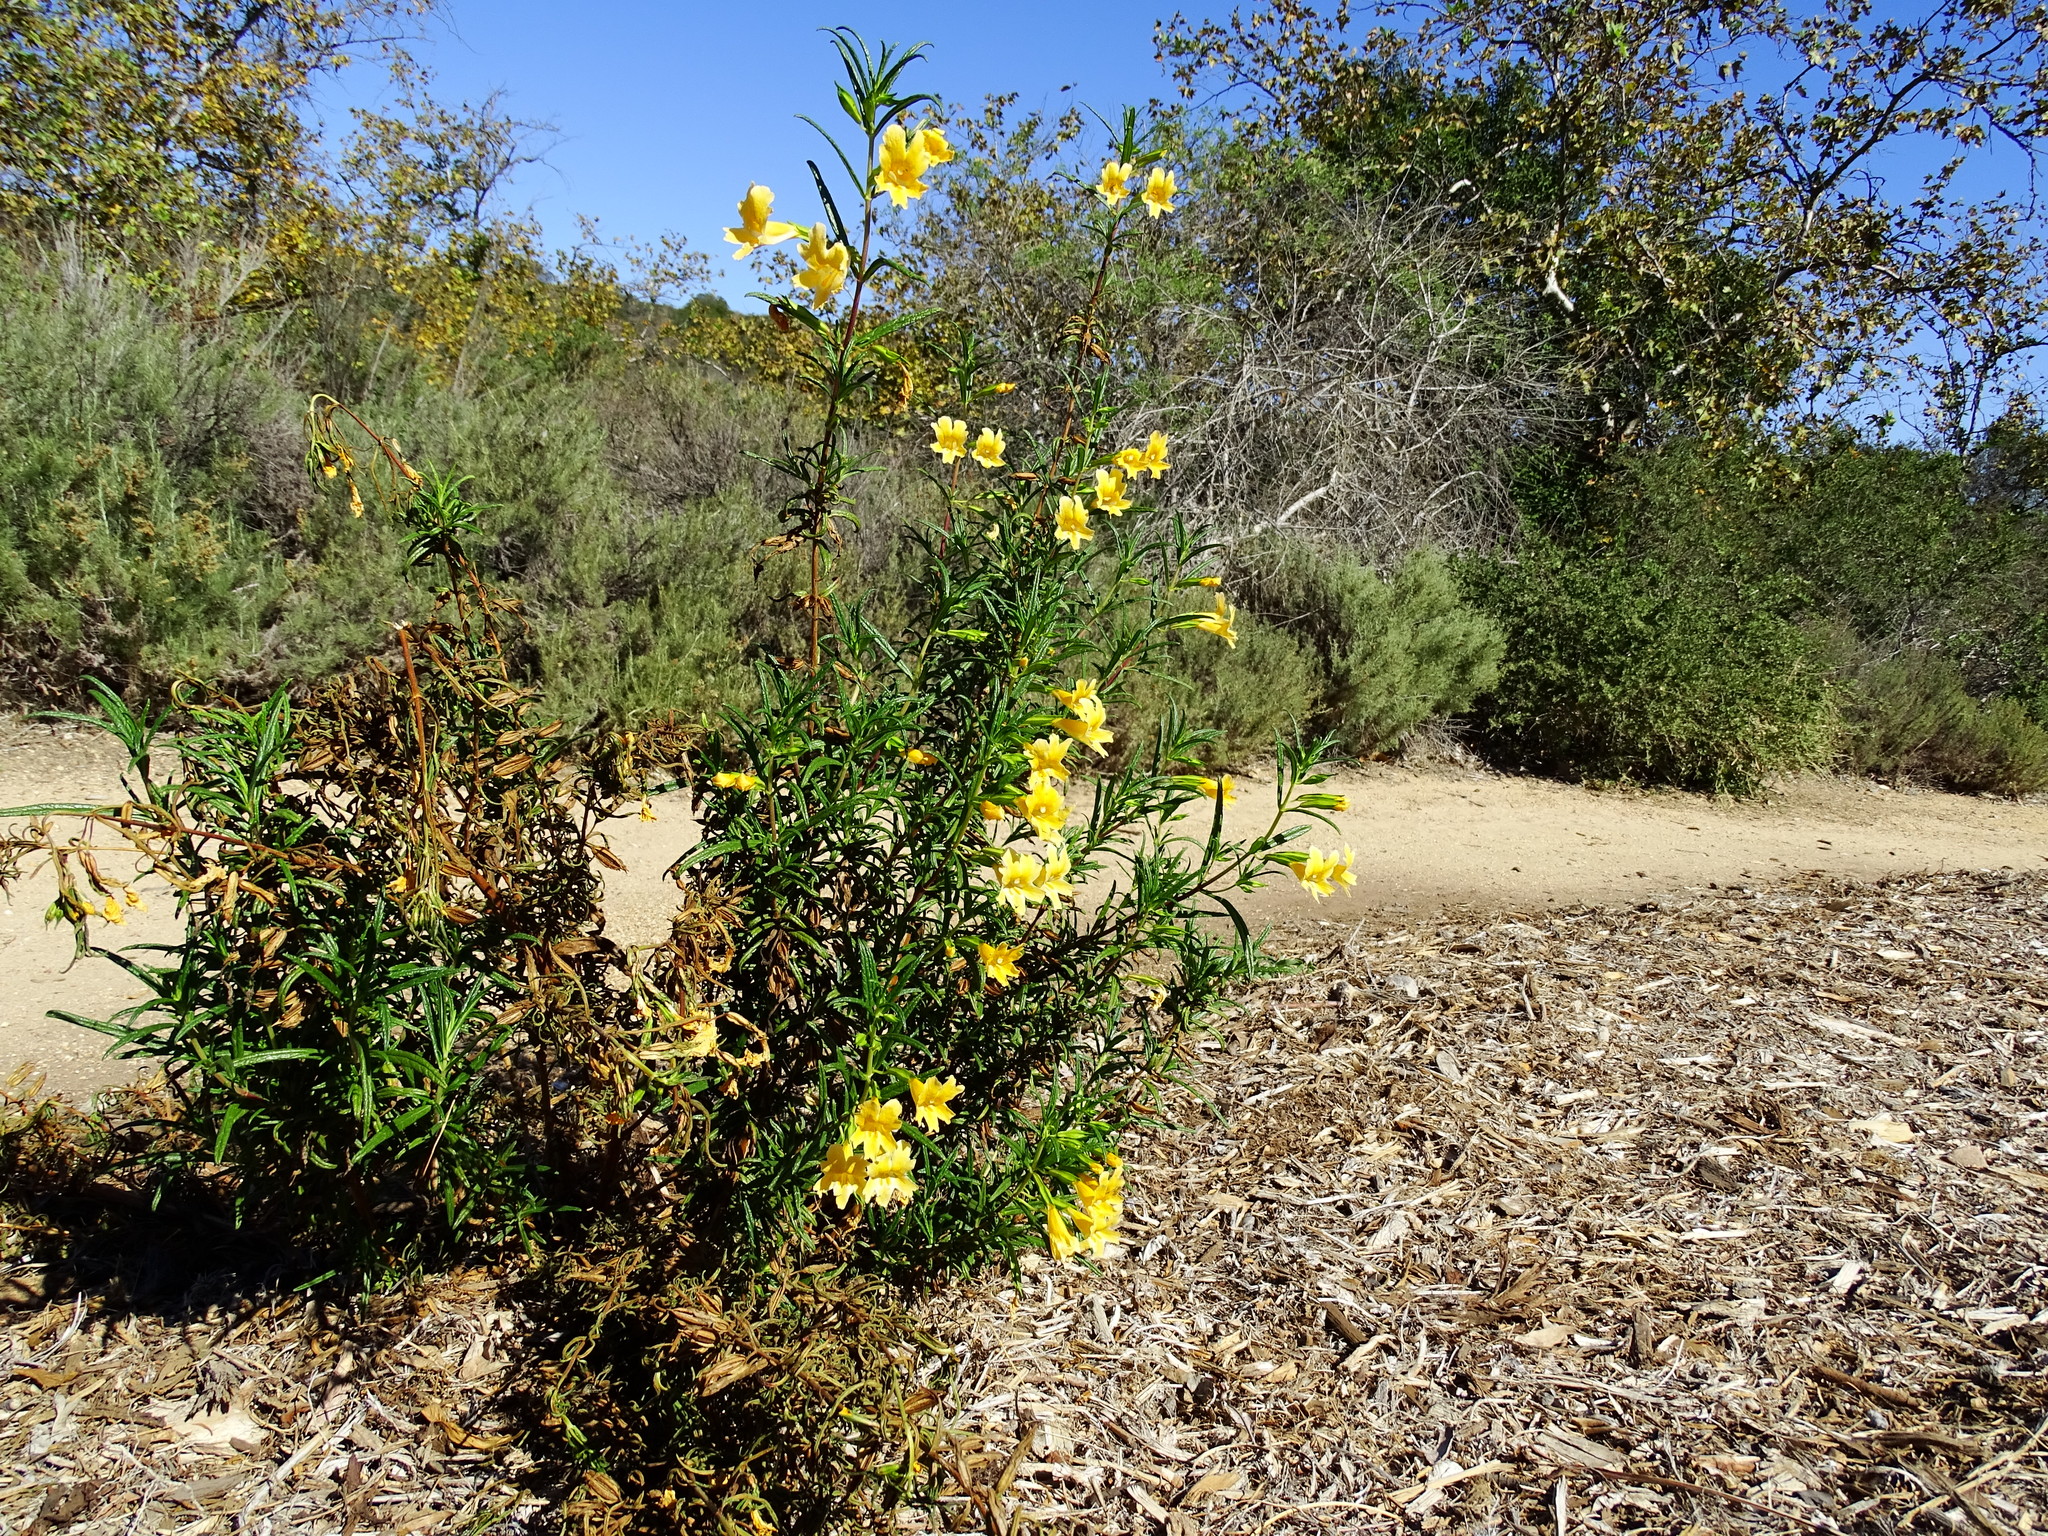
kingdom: Plantae
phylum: Tracheophyta
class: Magnoliopsida
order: Lamiales
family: Phrymaceae
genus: Diplacus
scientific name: Diplacus australis
